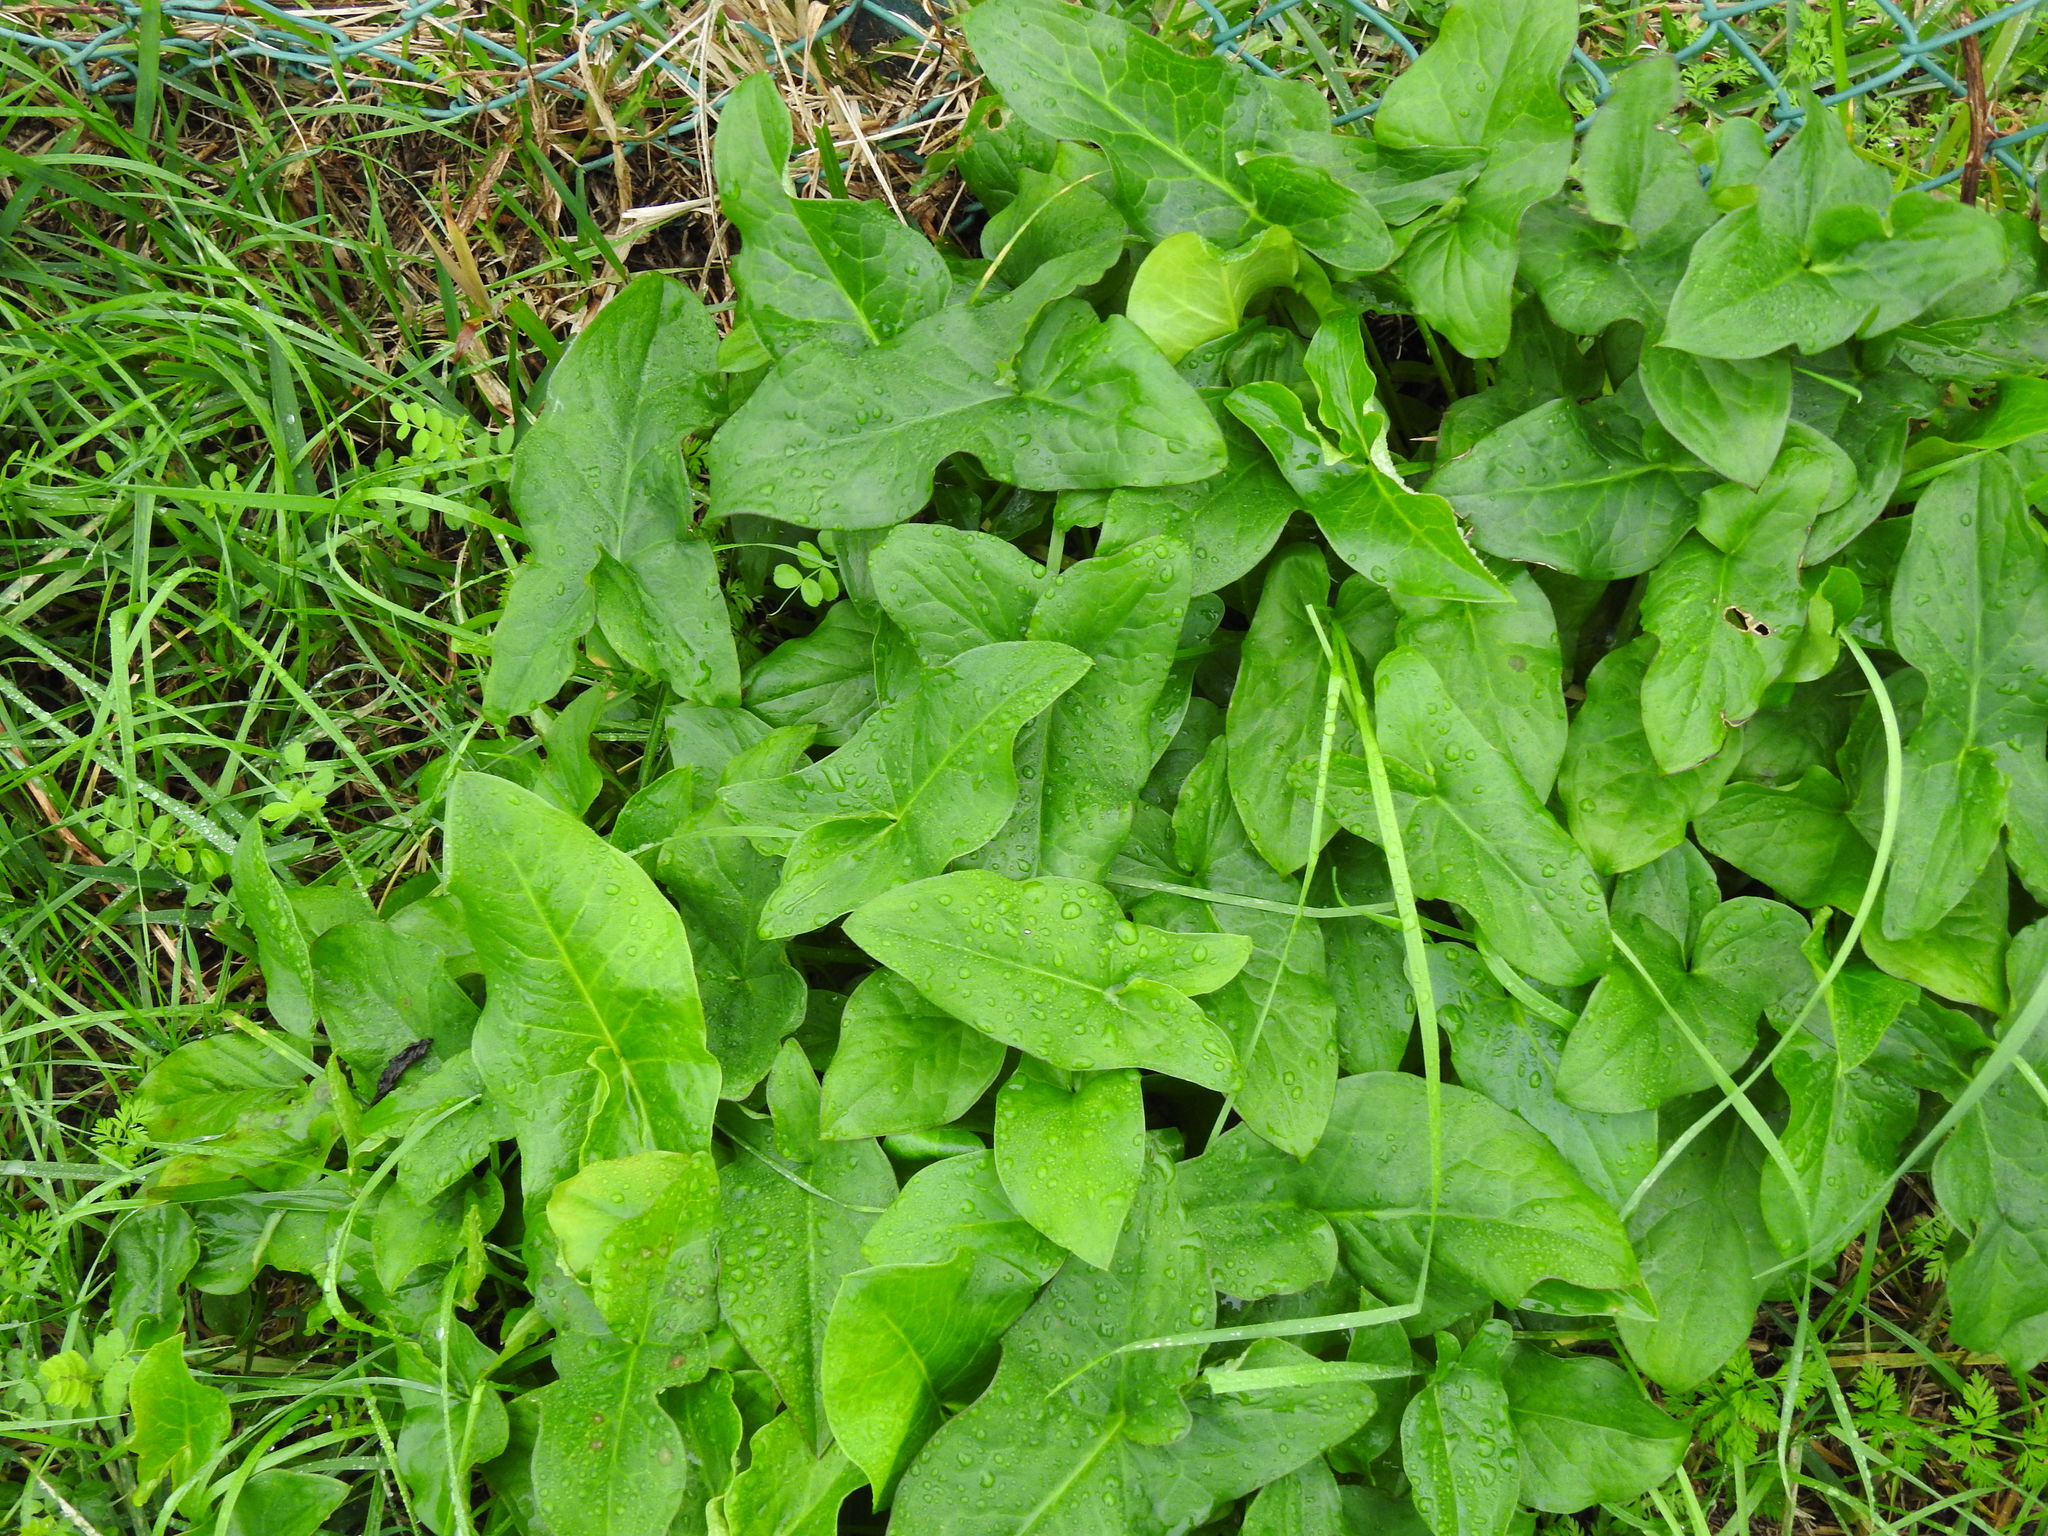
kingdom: Plantae
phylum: Tracheophyta
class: Liliopsida
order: Alismatales
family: Araceae
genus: Arum
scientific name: Arum italicum
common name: Italian lords-and-ladies
